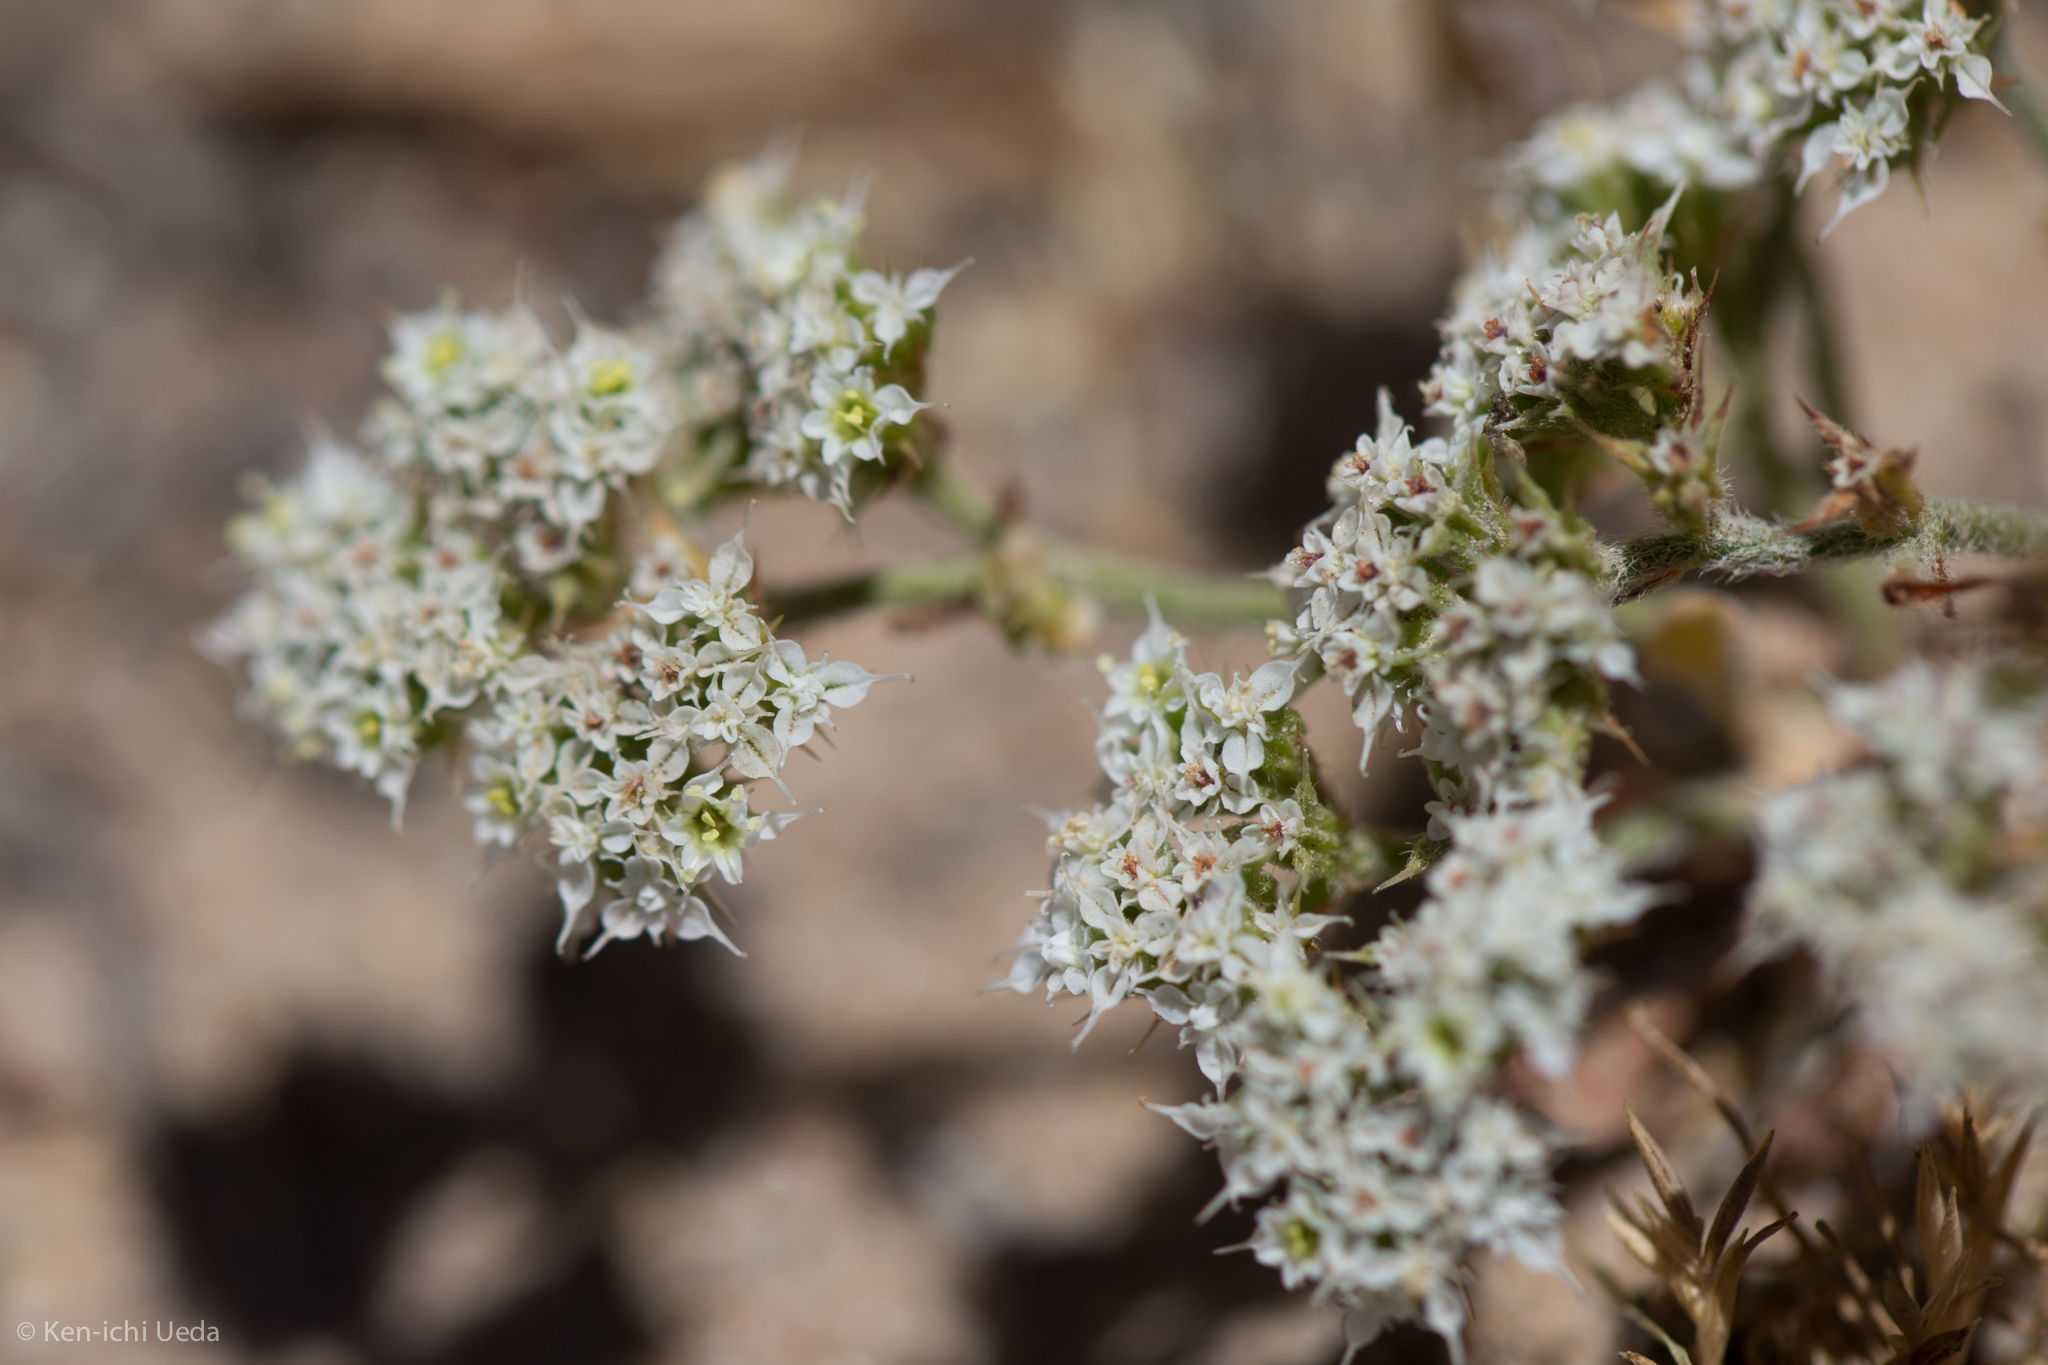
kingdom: Plantae
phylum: Tracheophyta
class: Magnoliopsida
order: Caryophyllales
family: Polygonaceae
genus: Chorizanthe
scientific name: Chorizanthe diffusa
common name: Diffuse spineflower
